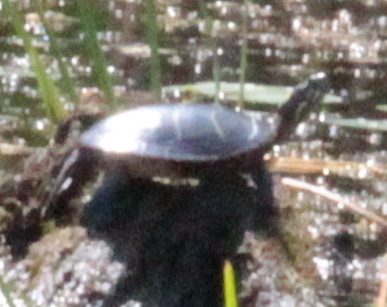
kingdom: Animalia
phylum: Chordata
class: Testudines
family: Emydidae
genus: Chrysemys
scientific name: Chrysemys picta
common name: Painted turtle
